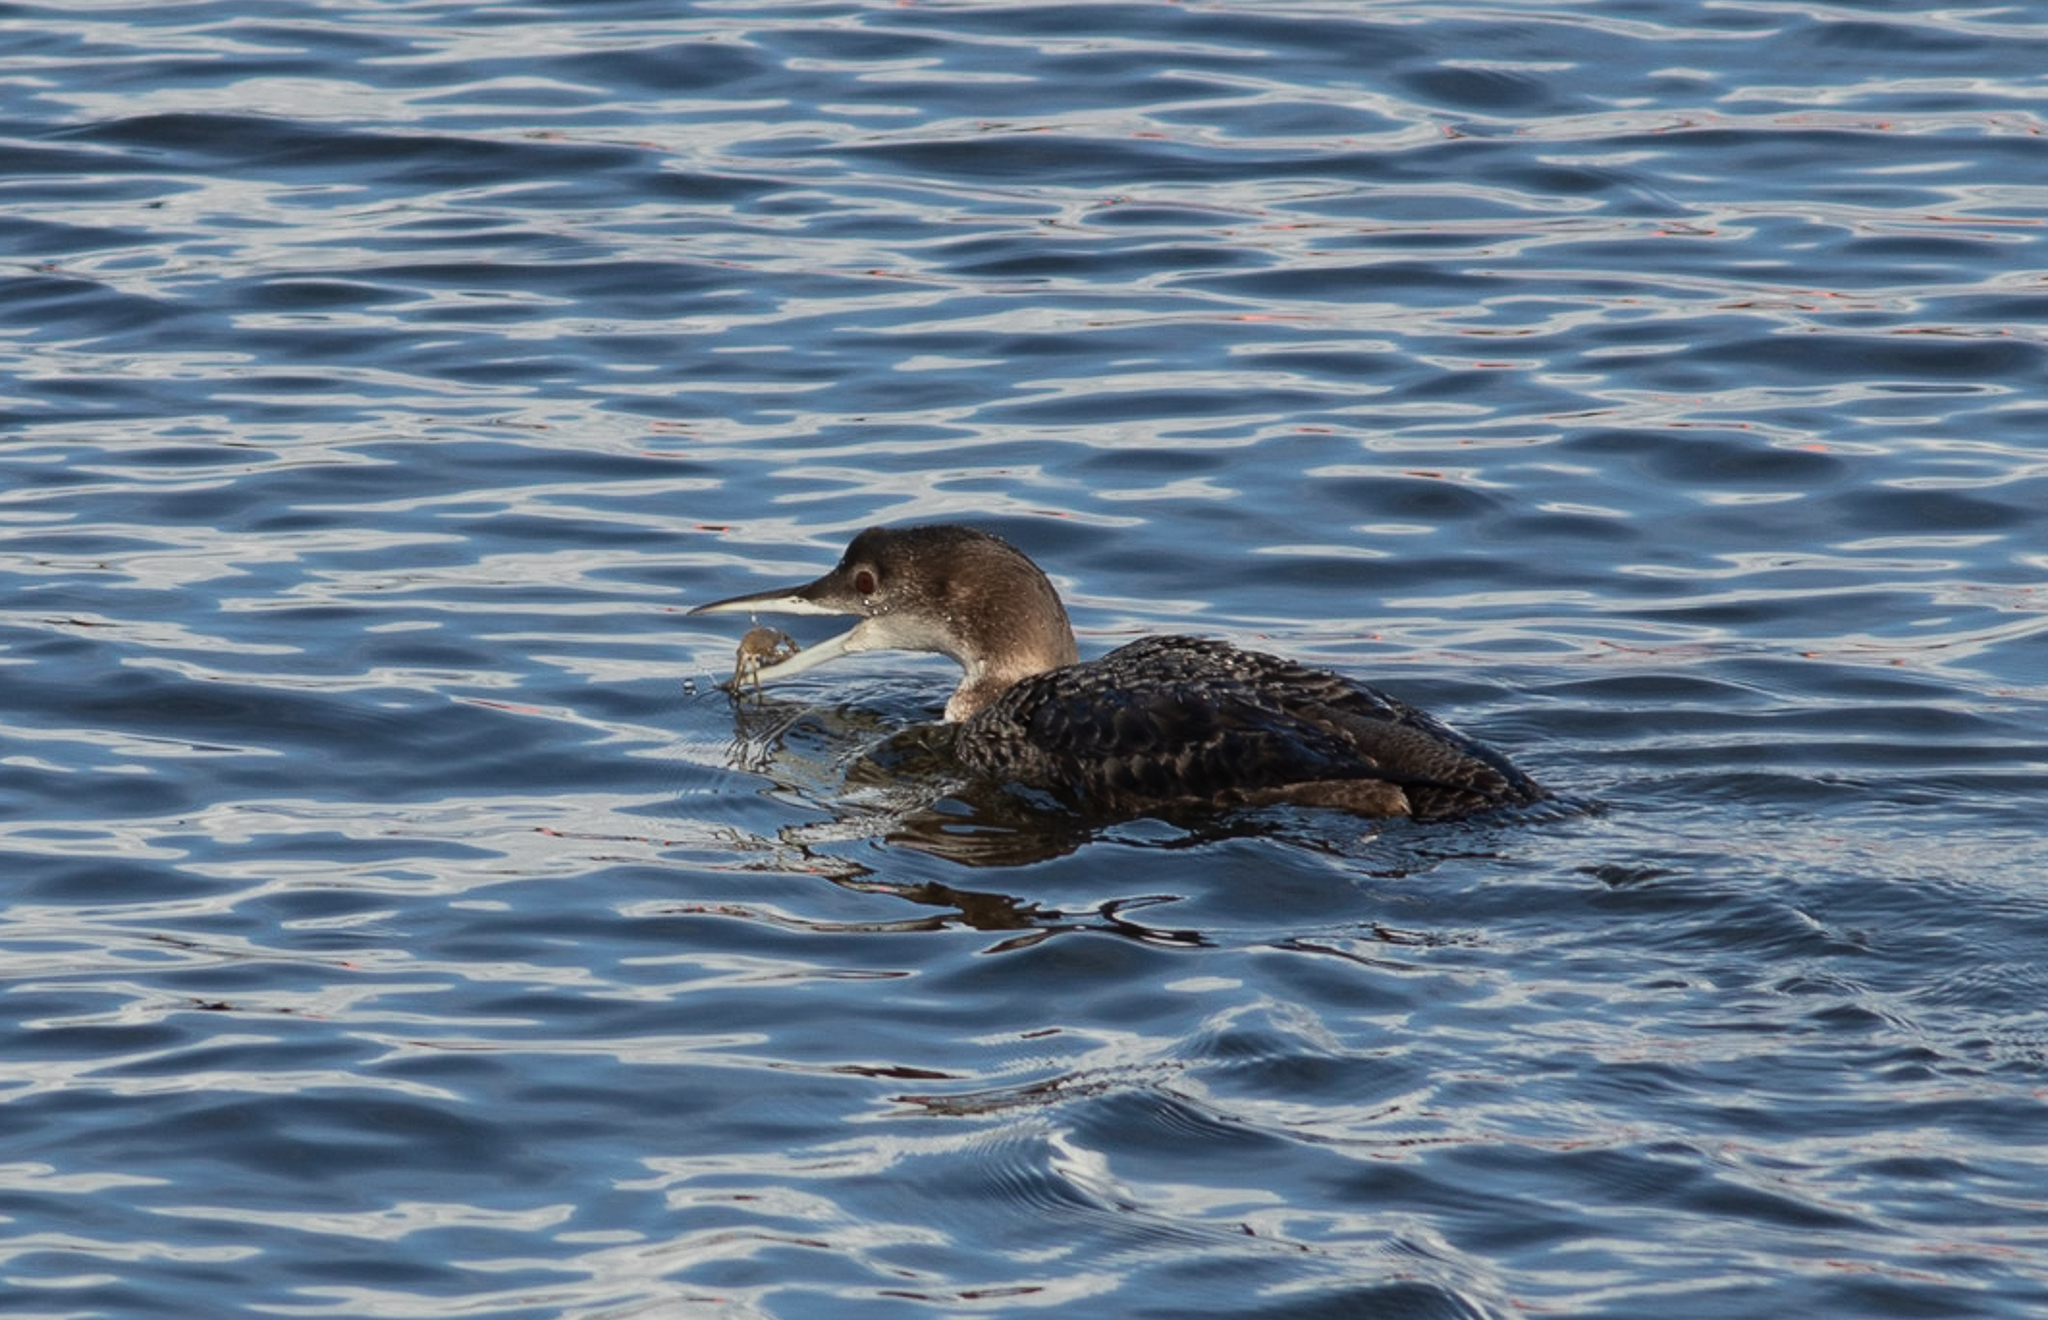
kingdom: Animalia
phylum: Chordata
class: Aves
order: Gaviiformes
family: Gaviidae
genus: Gavia
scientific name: Gavia immer
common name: Common loon
